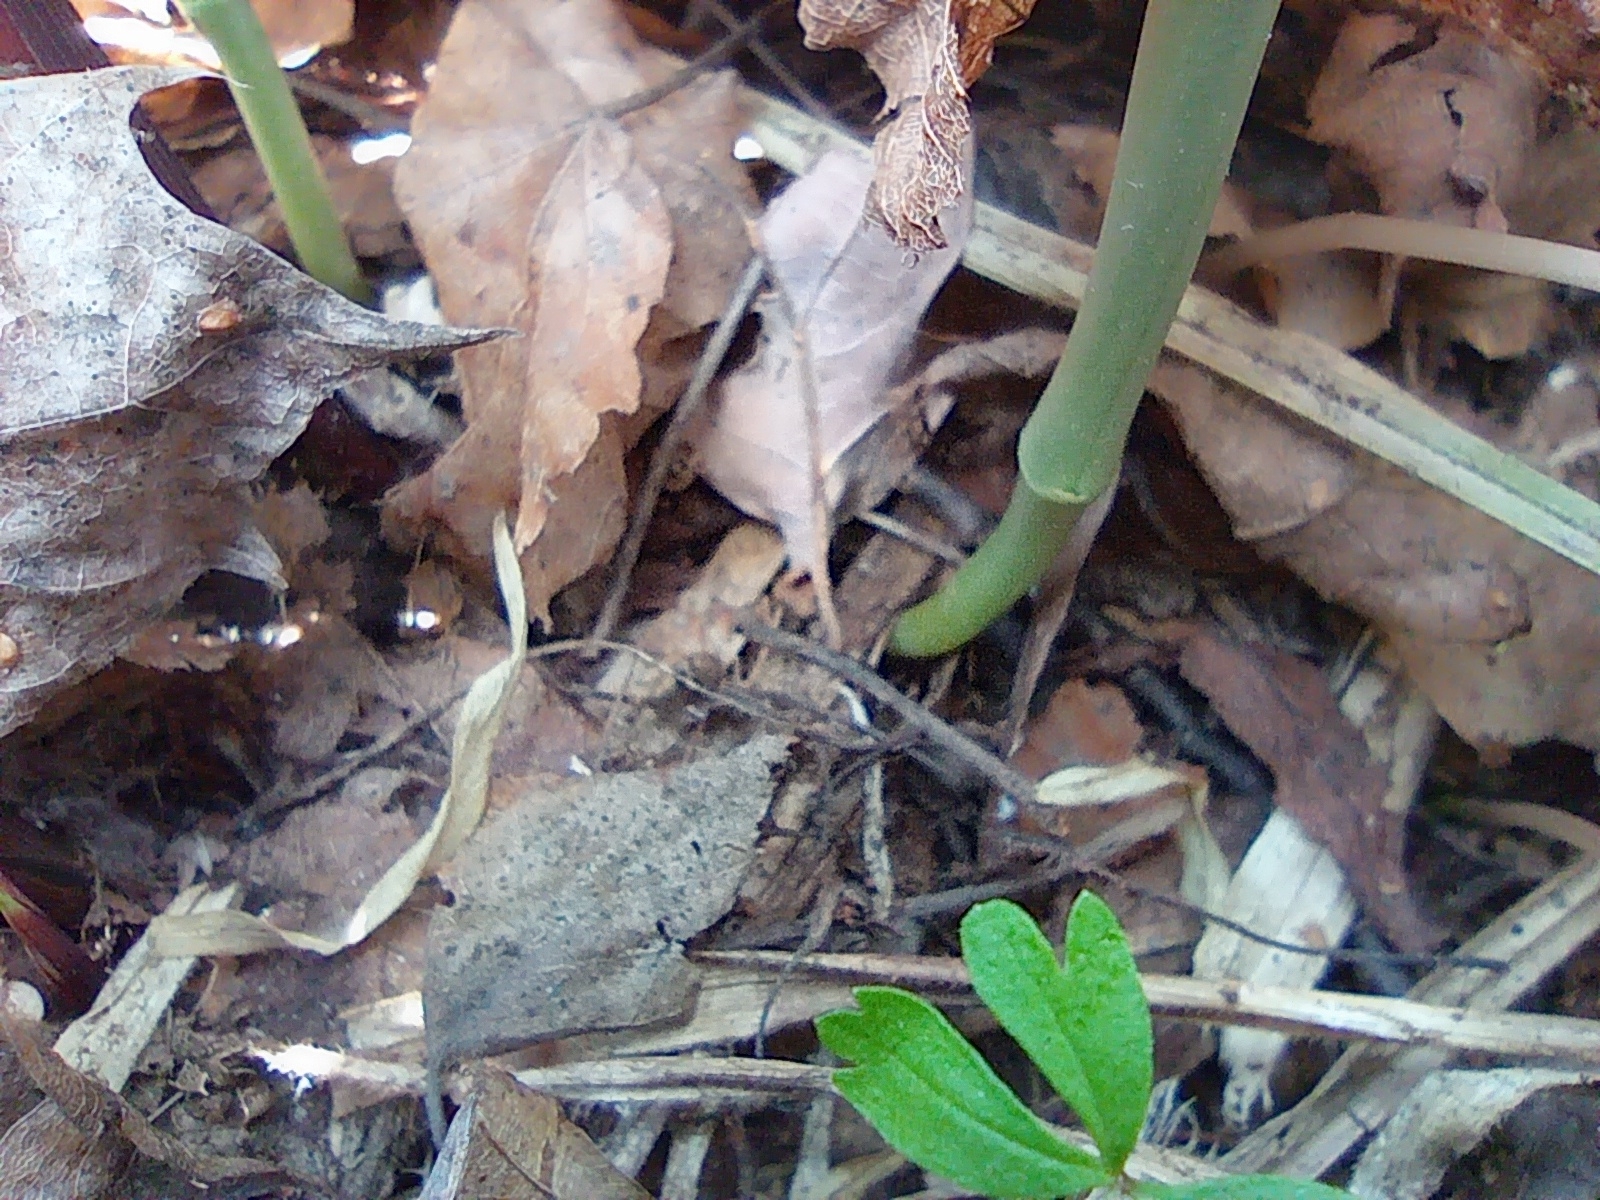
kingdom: Plantae
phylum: Tracheophyta
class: Magnoliopsida
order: Malpighiales
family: Euphorbiaceae
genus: Mercurialis
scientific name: Mercurialis perennis
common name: Dog mercury
